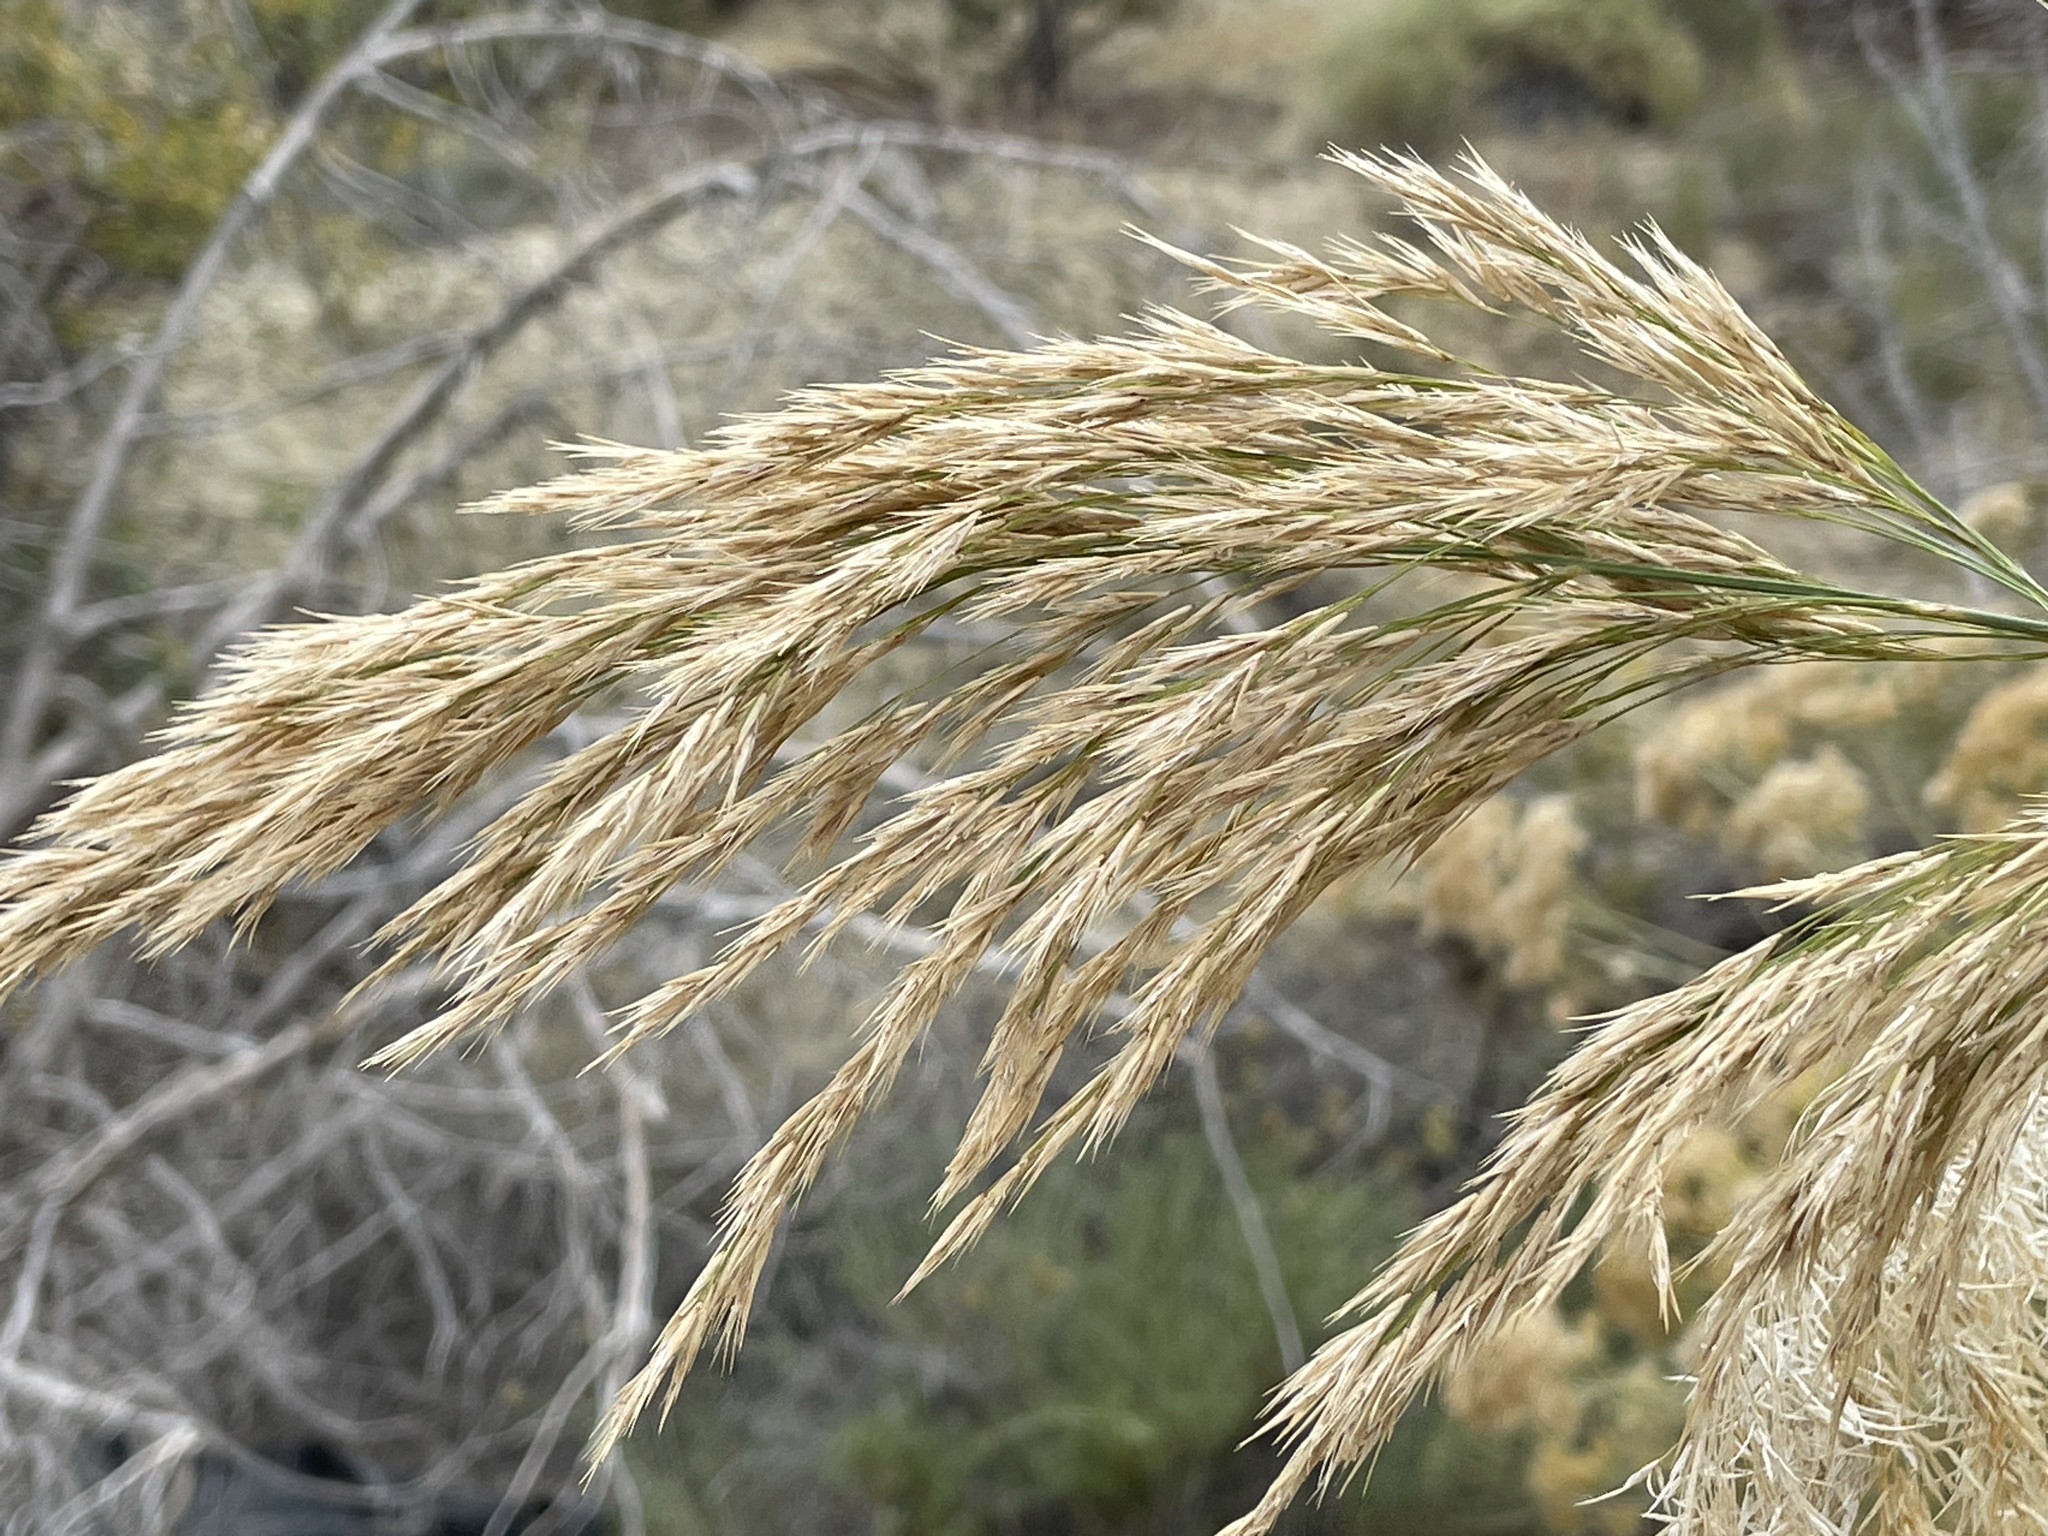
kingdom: Plantae
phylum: Tracheophyta
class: Liliopsida
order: Poales
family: Poaceae
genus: Phragmites
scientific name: Phragmites australis
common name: Common reed
